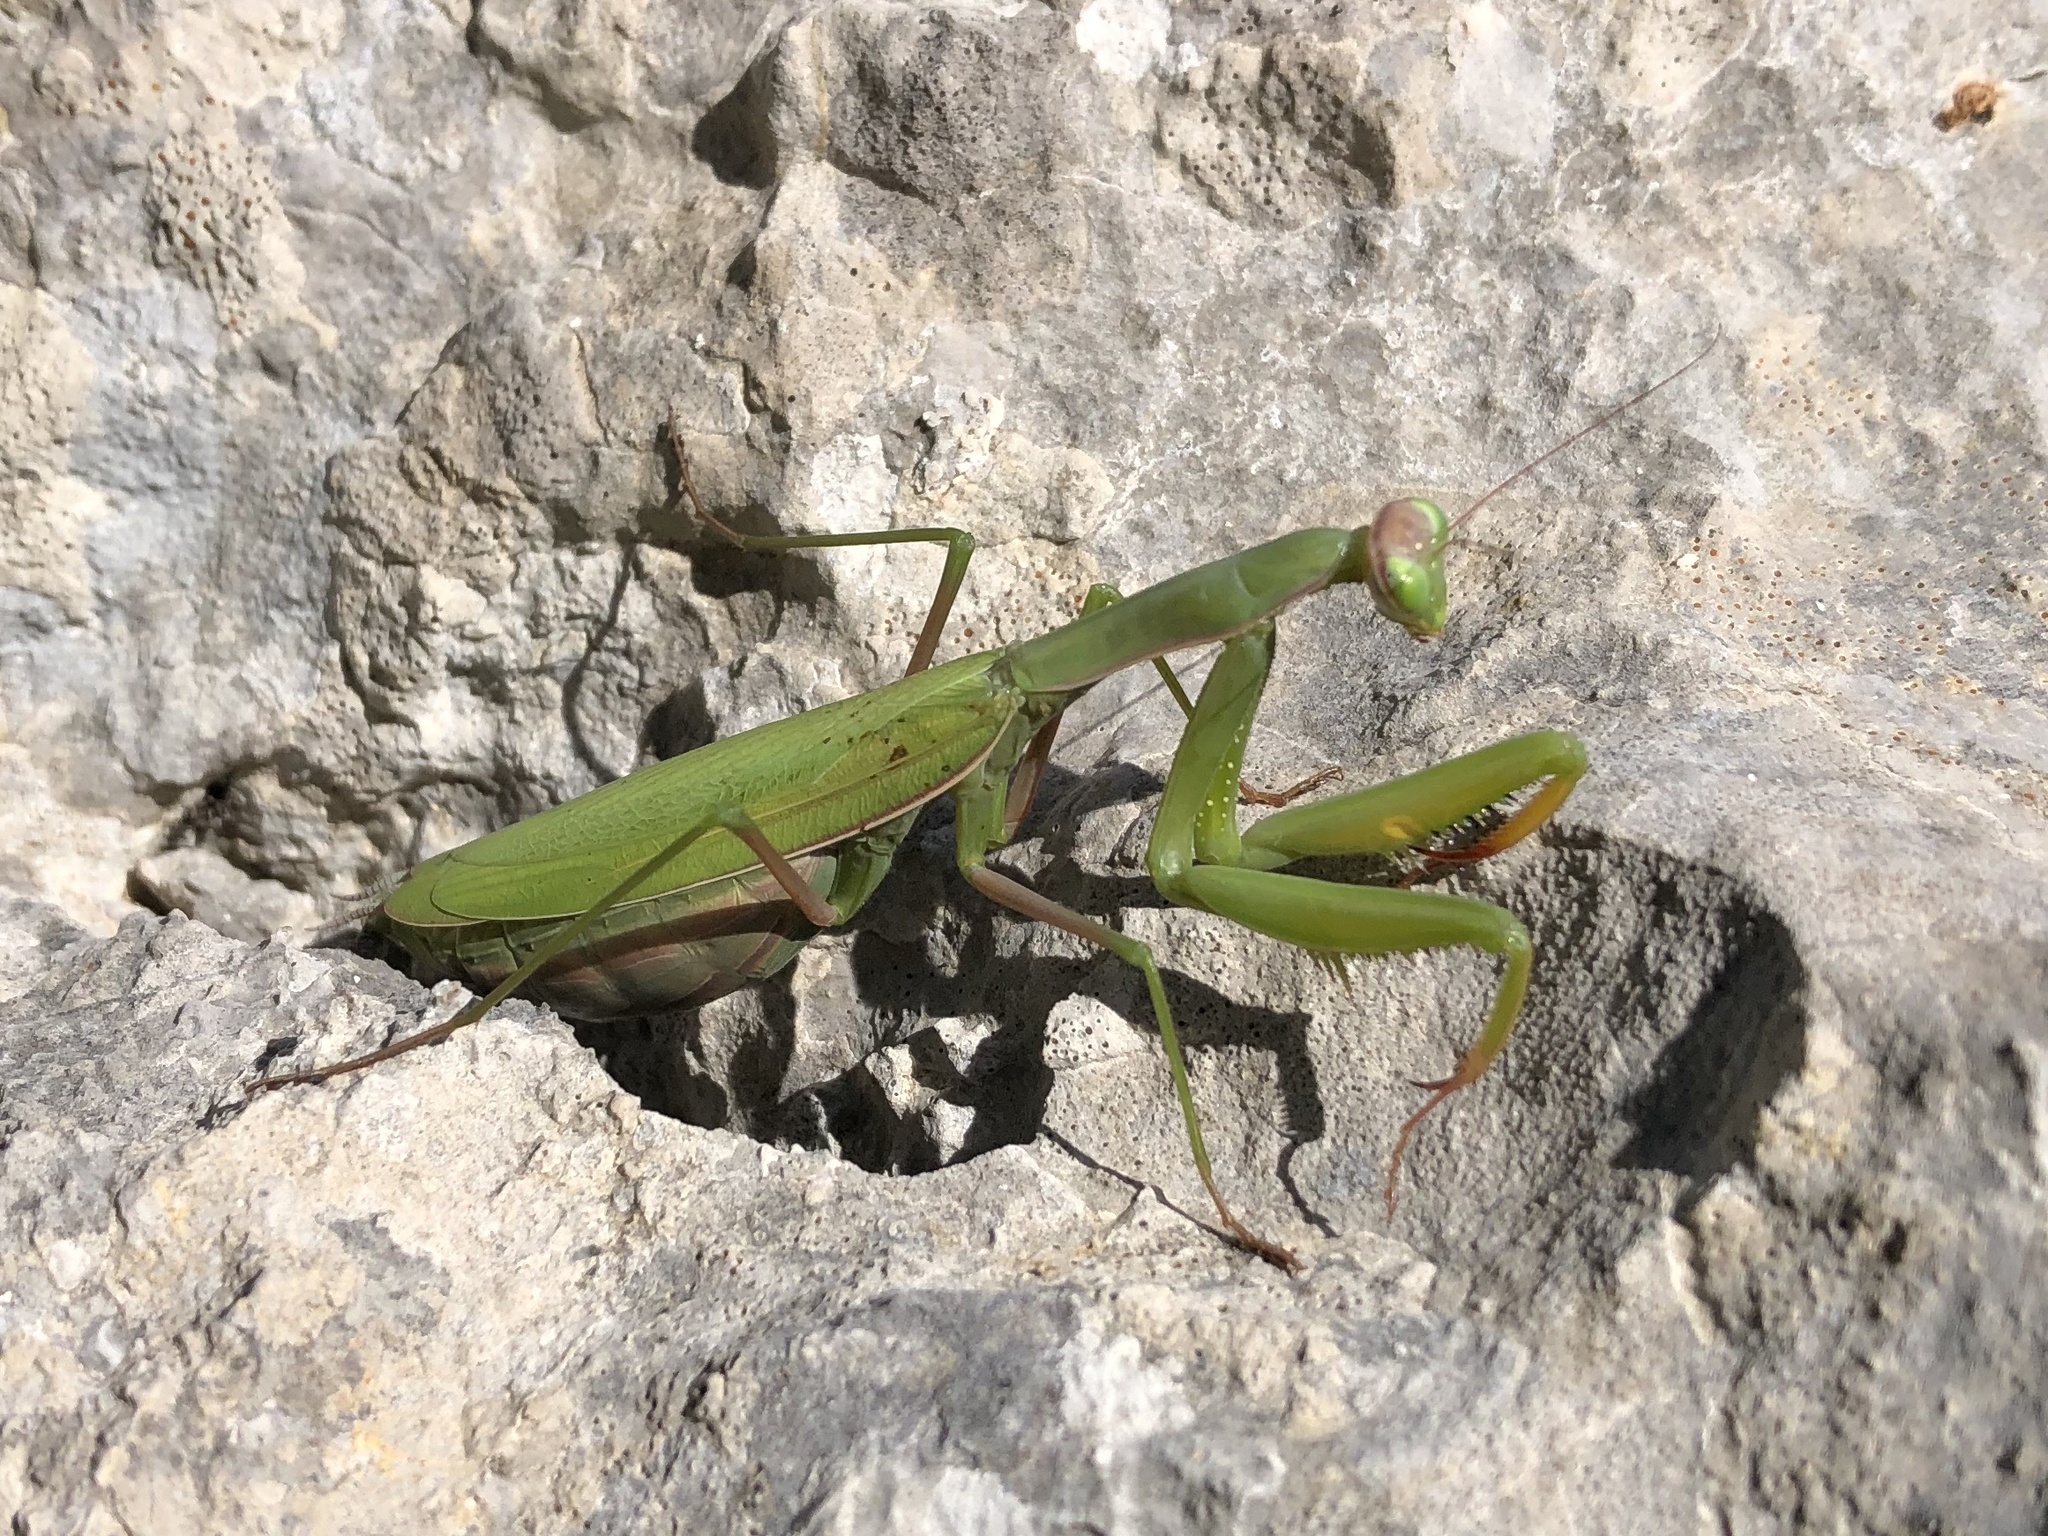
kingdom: Animalia
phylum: Arthropoda
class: Insecta
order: Mantodea
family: Mantidae
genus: Mantis
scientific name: Mantis religiosa
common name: Praying mantis
